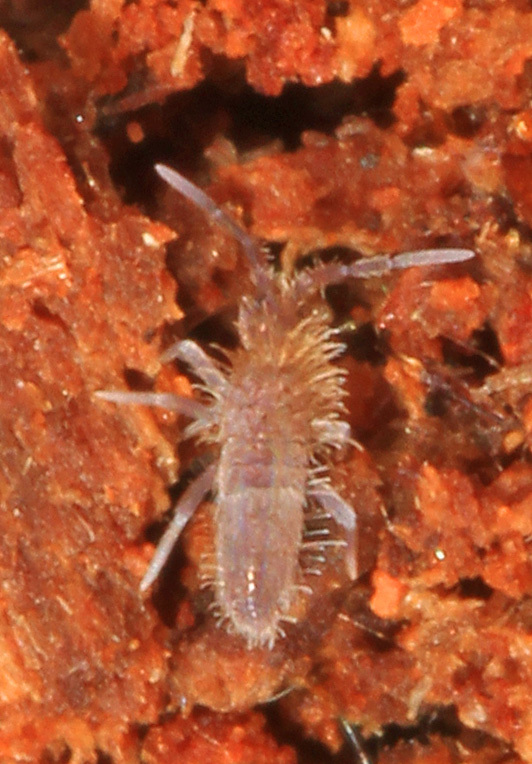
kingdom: Animalia
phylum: Arthropoda
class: Collembola
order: Entomobryomorpha
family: Entomobryidae
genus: Entomobrya
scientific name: Entomobrya griseoolivata
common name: Springtail
